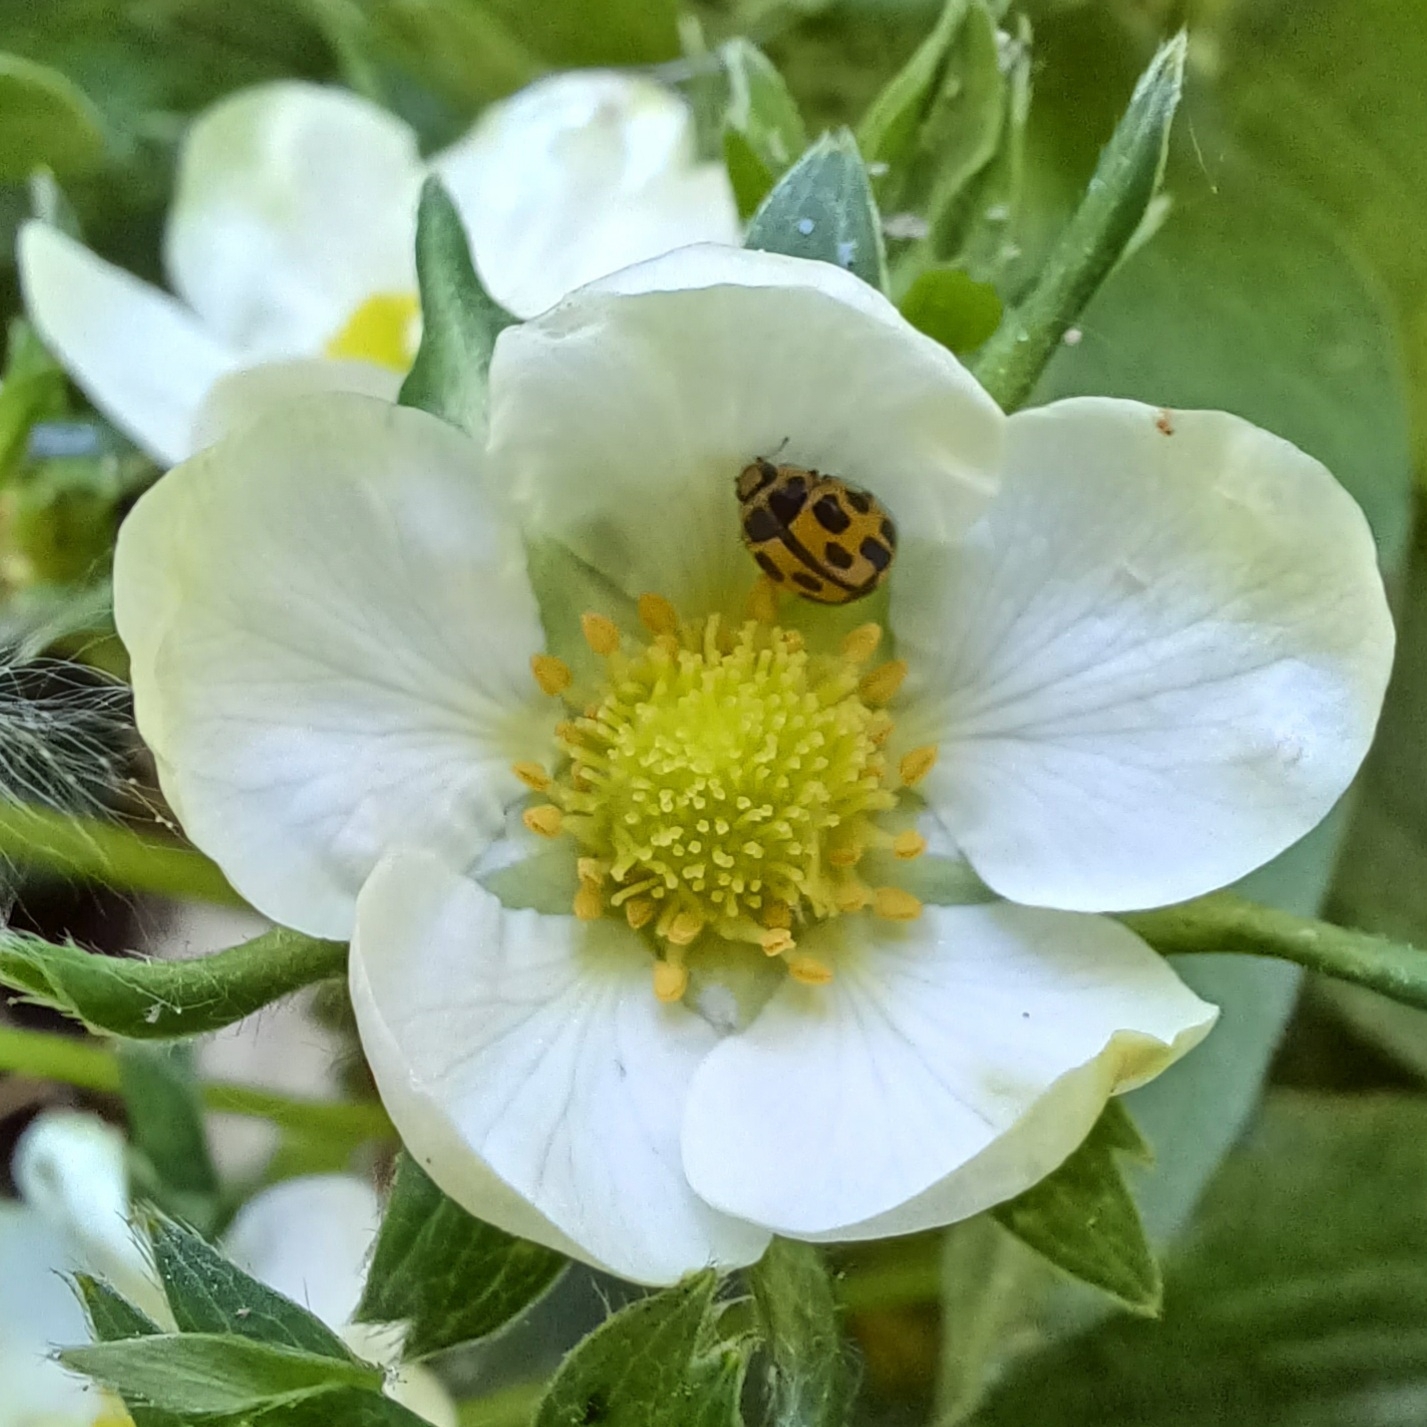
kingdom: Animalia
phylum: Arthropoda
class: Insecta
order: Coleoptera
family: Coccinellidae
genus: Propylaea
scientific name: Propylaea quatuordecimpunctata
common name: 14-spotted ladybird beetle
